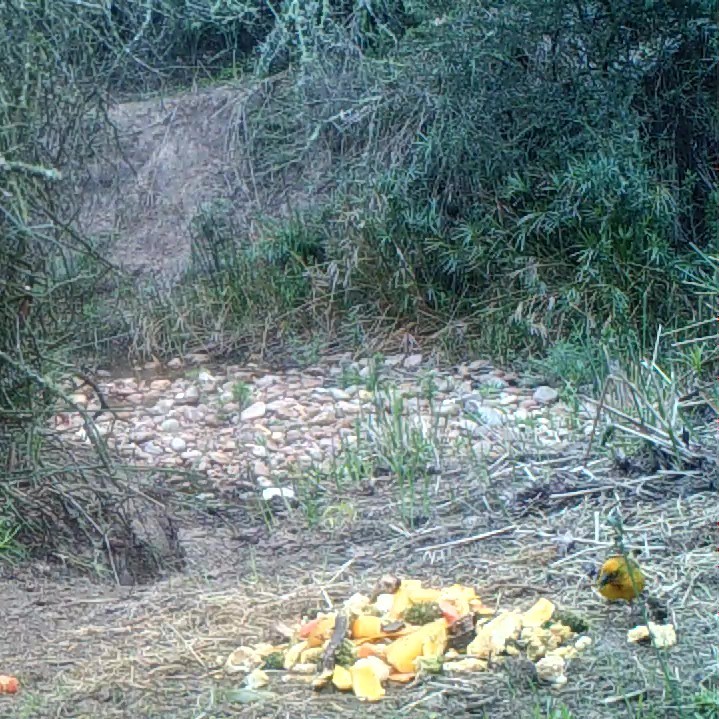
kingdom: Animalia
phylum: Chordata
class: Aves
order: Passeriformes
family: Ploceidae
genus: Ploceus
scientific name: Ploceus capensis
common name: Cape weaver
